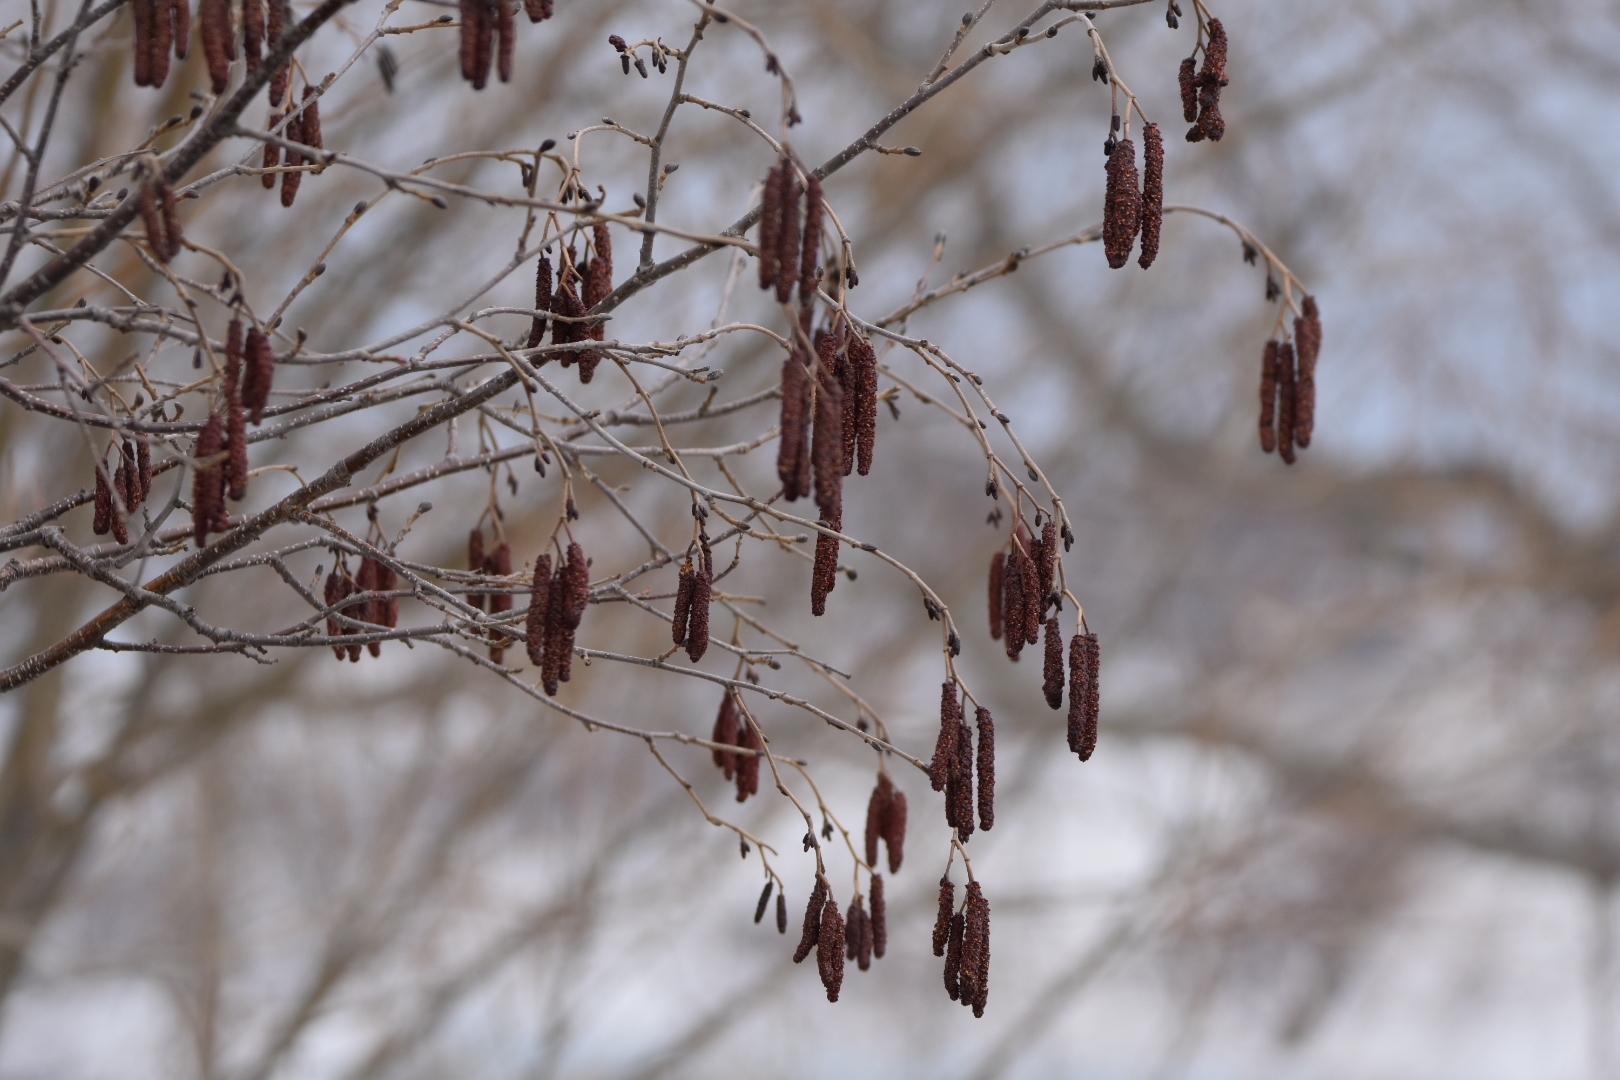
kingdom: Plantae
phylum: Tracheophyta
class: Magnoliopsida
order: Fagales
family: Betulaceae
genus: Alnus
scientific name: Alnus hirsuta
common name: Manchurian alder
